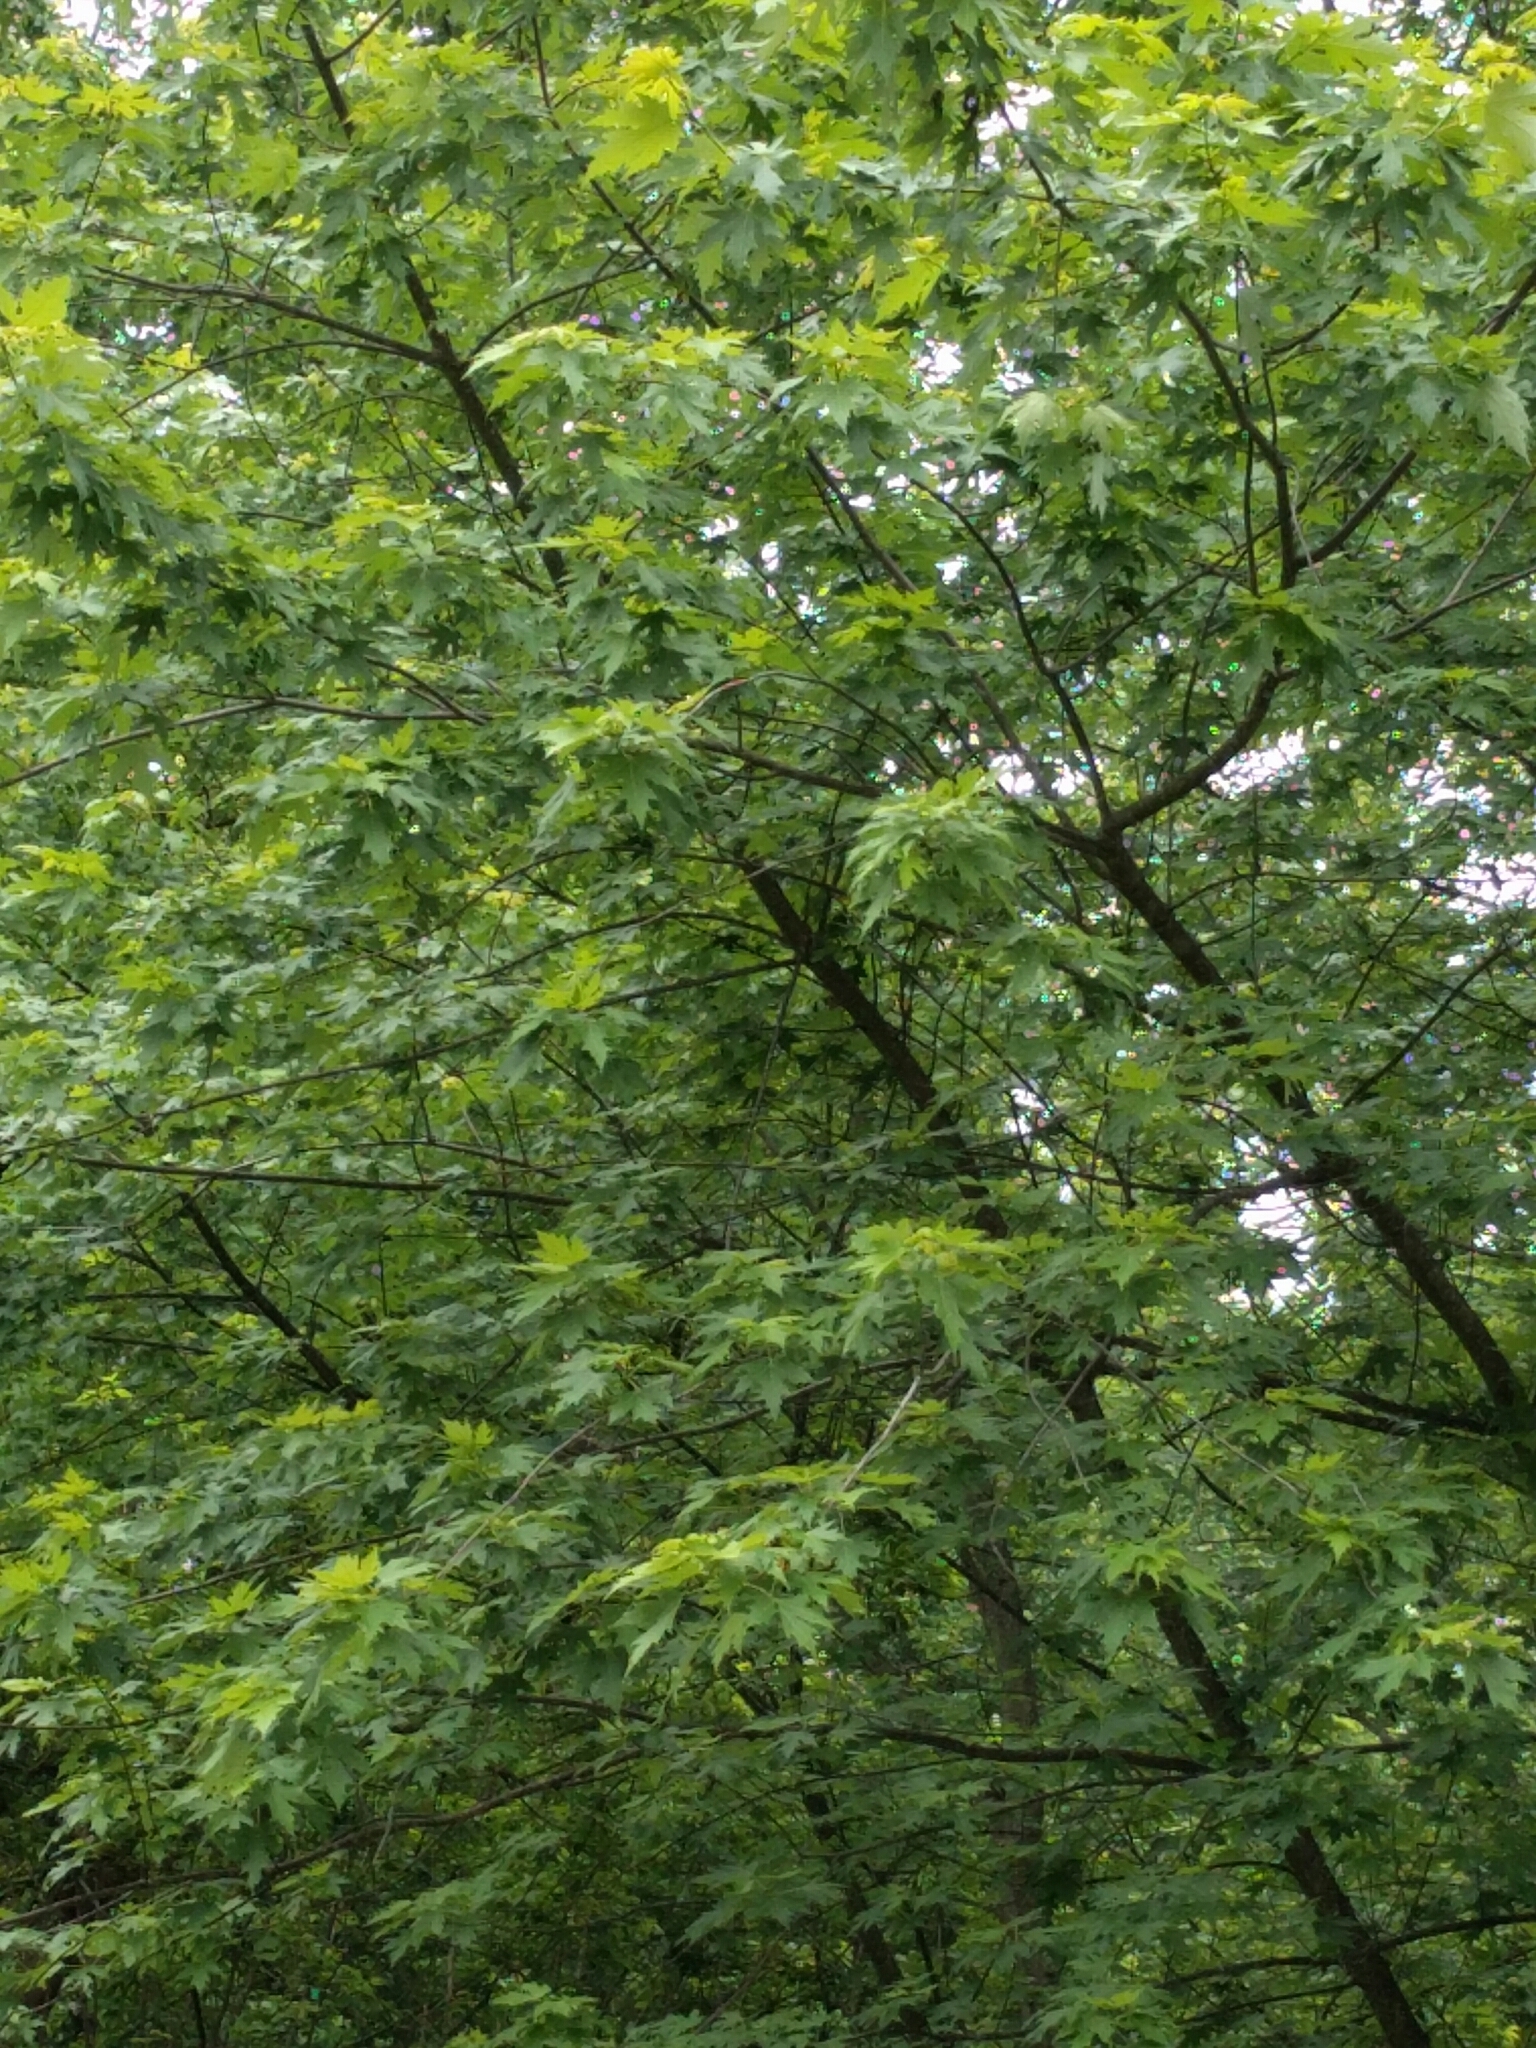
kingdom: Plantae
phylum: Tracheophyta
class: Magnoliopsida
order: Sapindales
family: Sapindaceae
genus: Acer
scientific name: Acer saccharinum
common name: Silver maple
